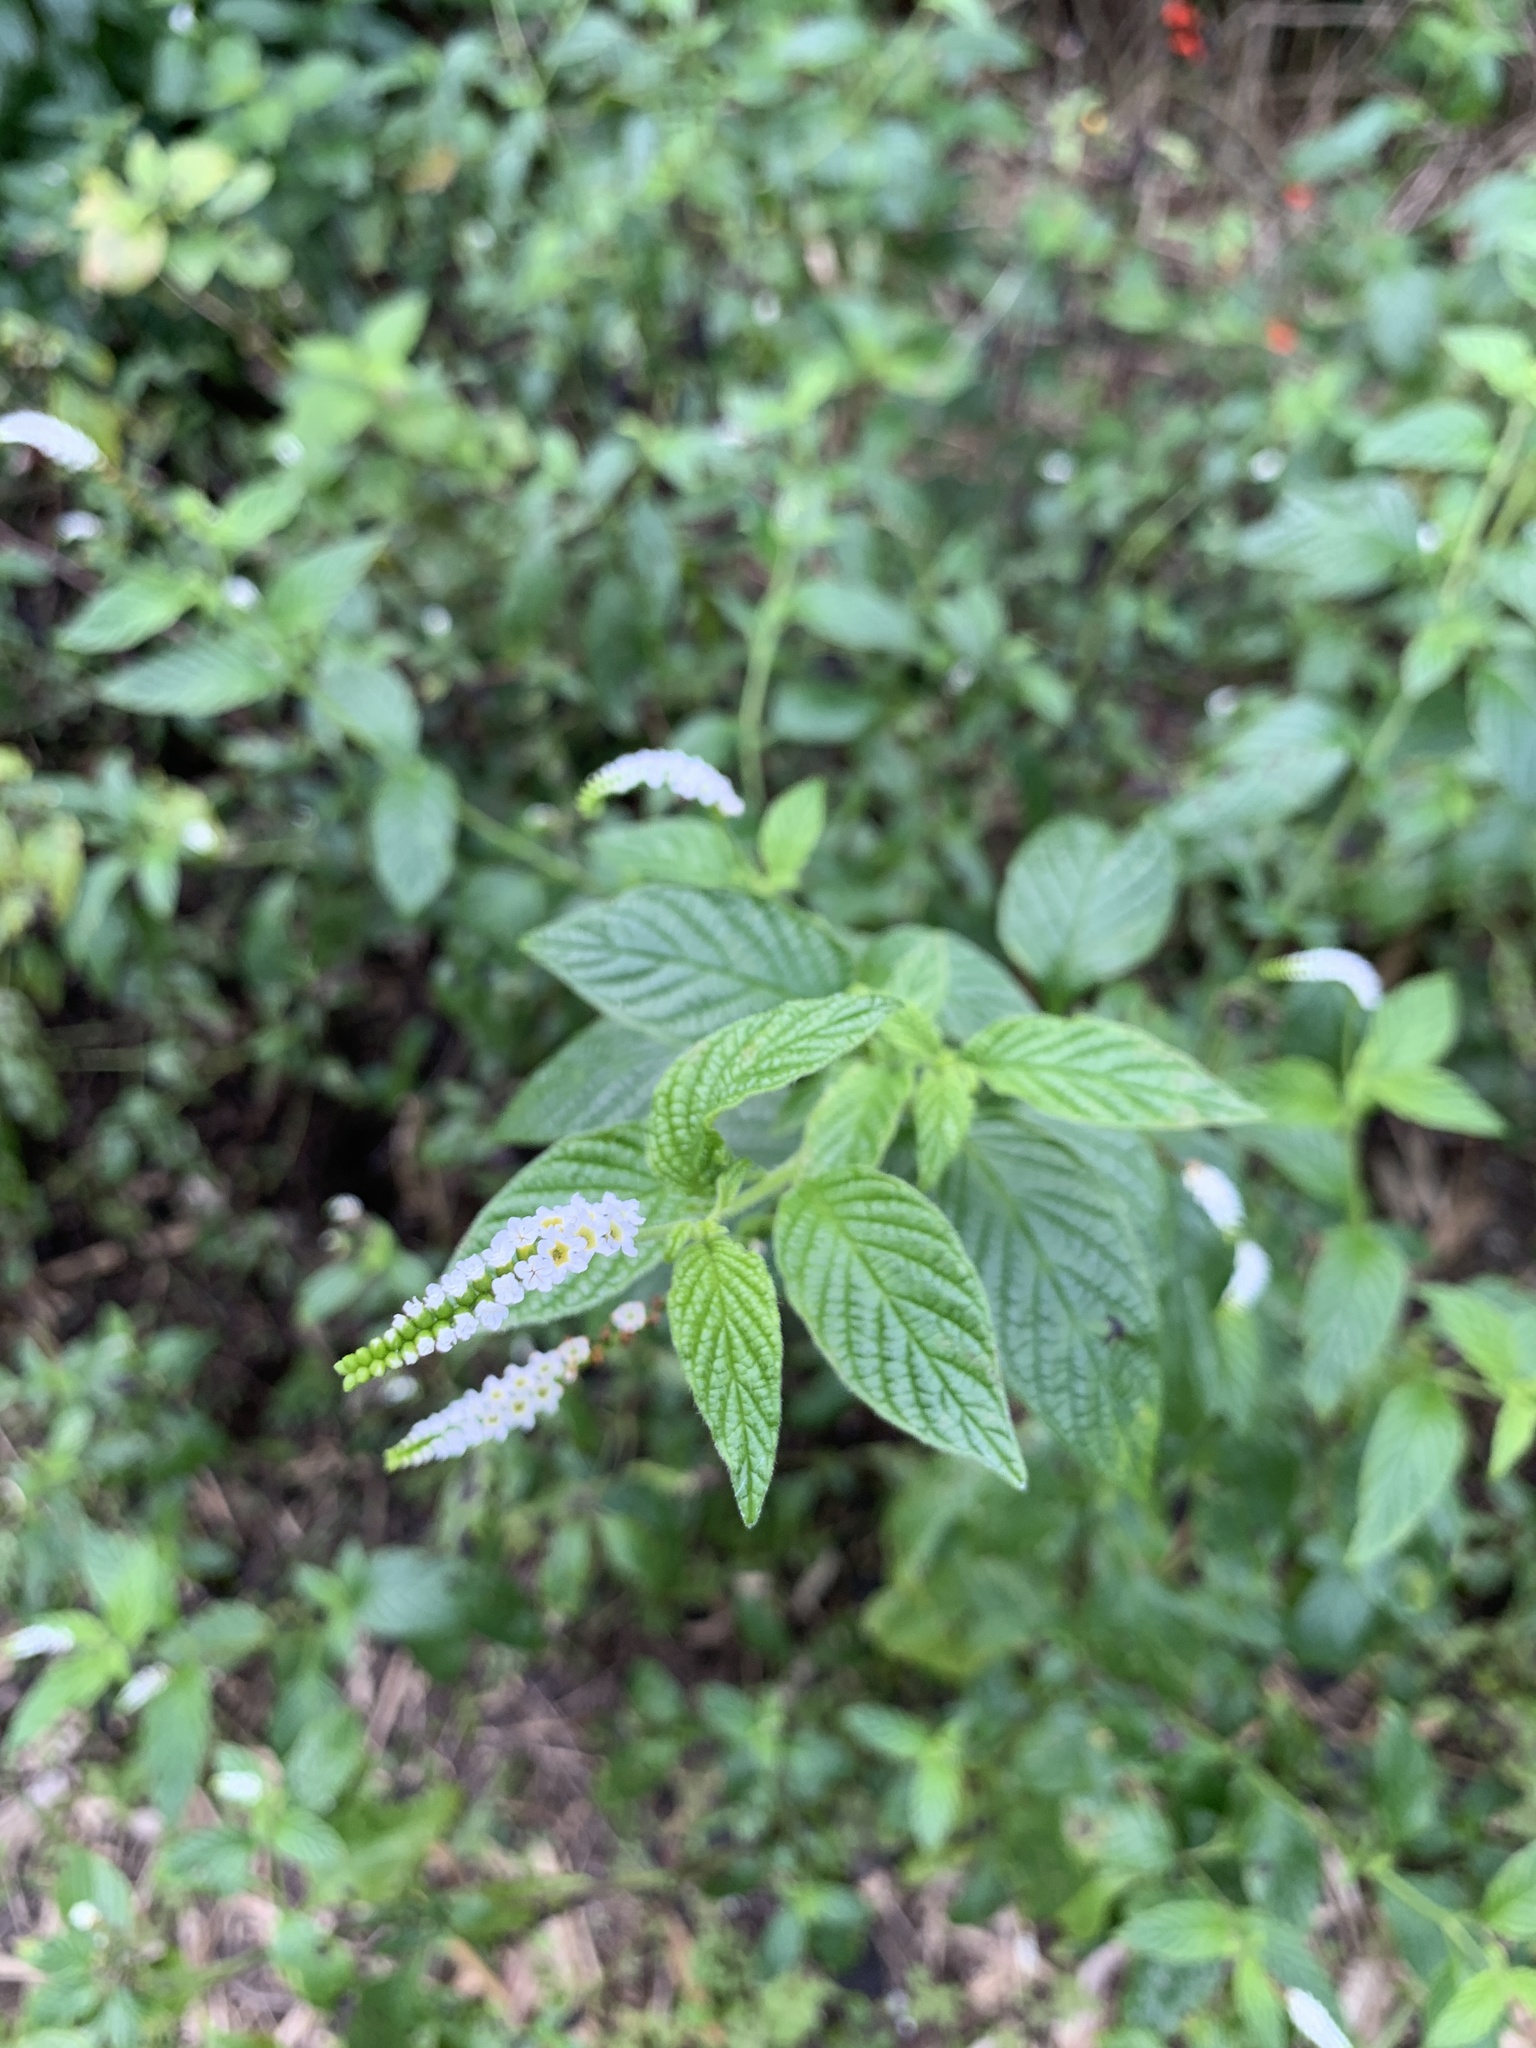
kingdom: Plantae
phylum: Tracheophyta
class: Magnoliopsida
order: Boraginales
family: Heliotropiaceae
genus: Heliotropium
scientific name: Heliotropium angiospermum
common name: Eye bright
